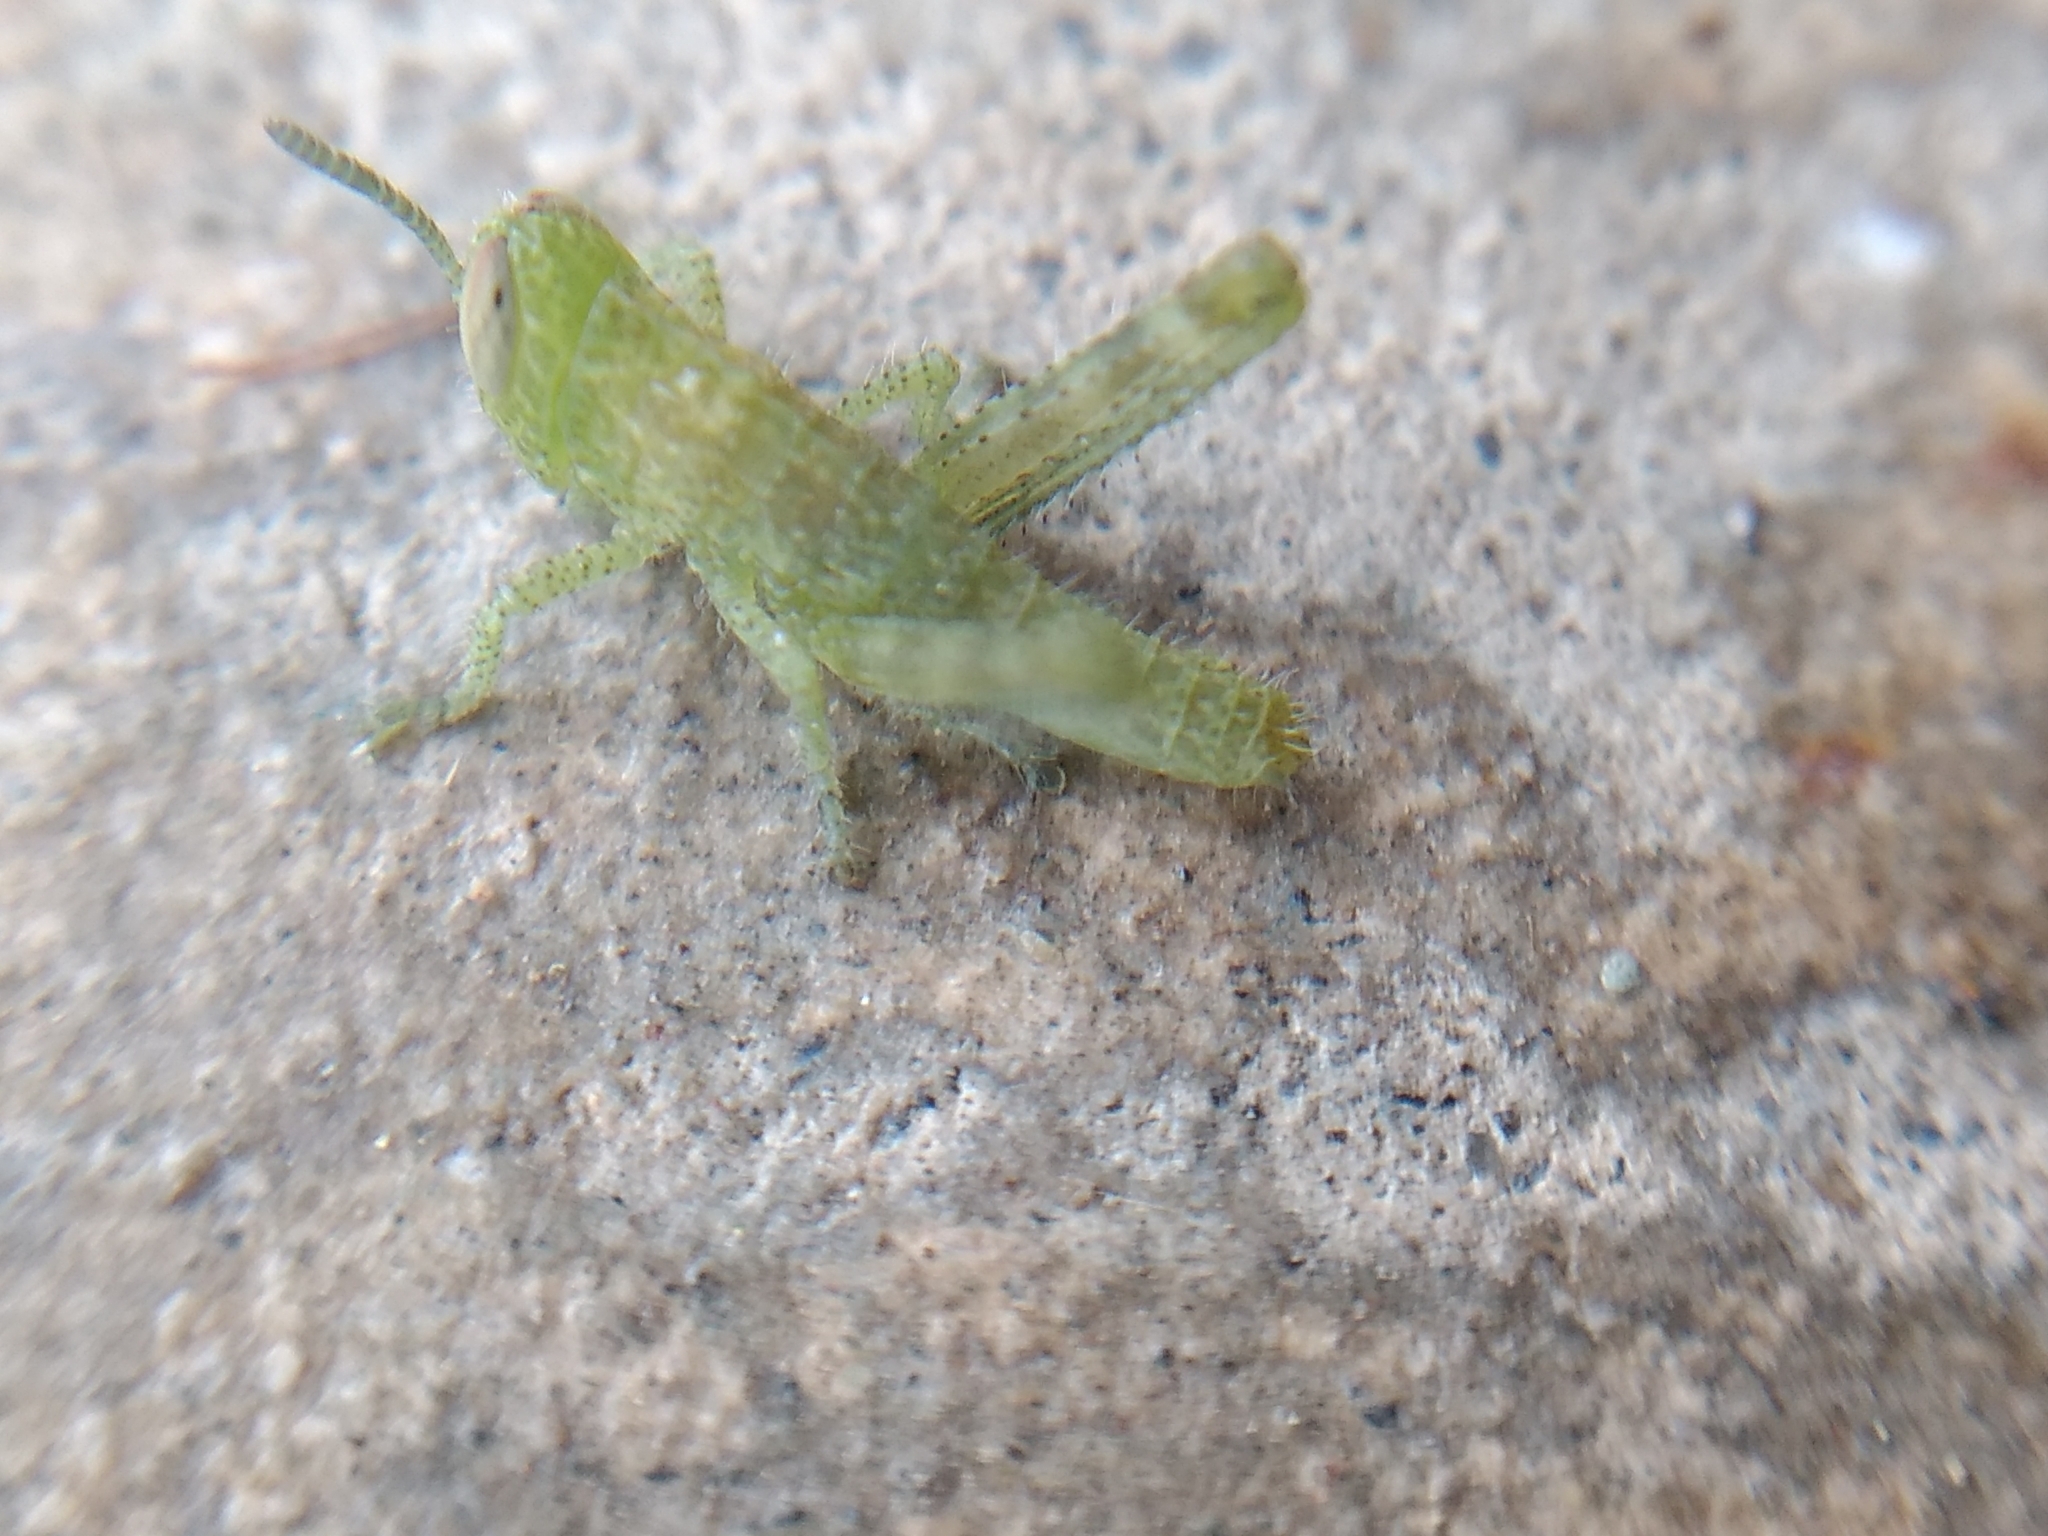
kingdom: Animalia
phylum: Arthropoda
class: Insecta
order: Orthoptera
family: Acrididae
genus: Schistocerca
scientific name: Schistocerca nitens
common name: Vagrant grasshopper
